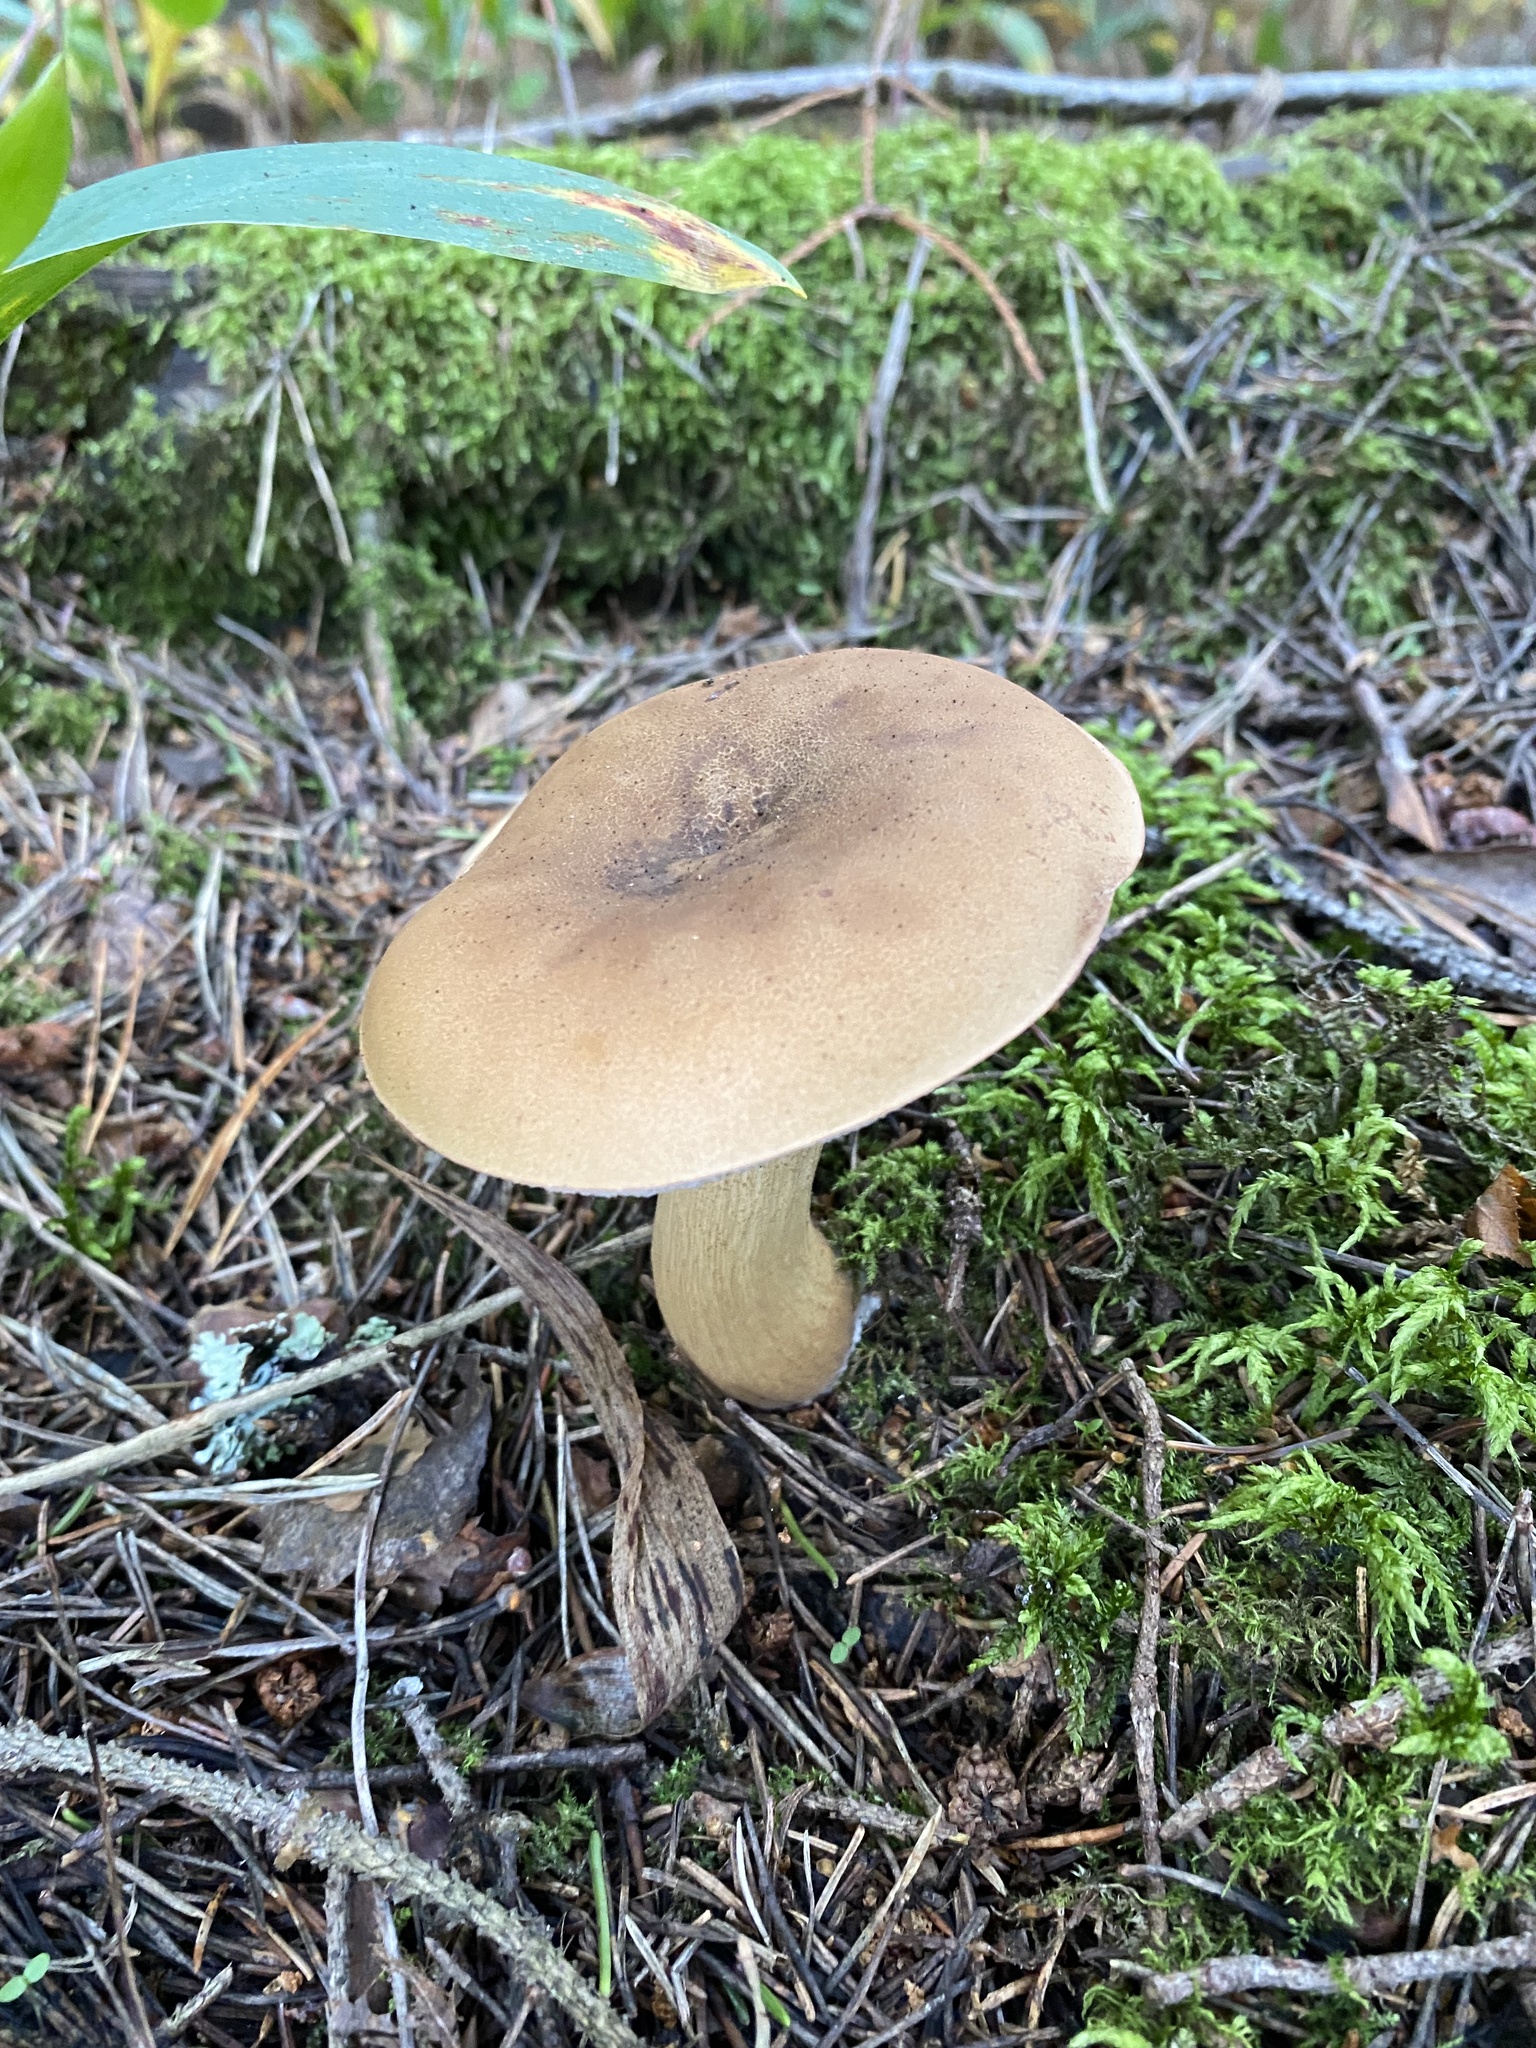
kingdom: Fungi
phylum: Basidiomycota
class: Agaricomycetes
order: Boletales
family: Boletaceae
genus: Tylopilus
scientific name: Tylopilus felleus
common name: Bitter bolete
